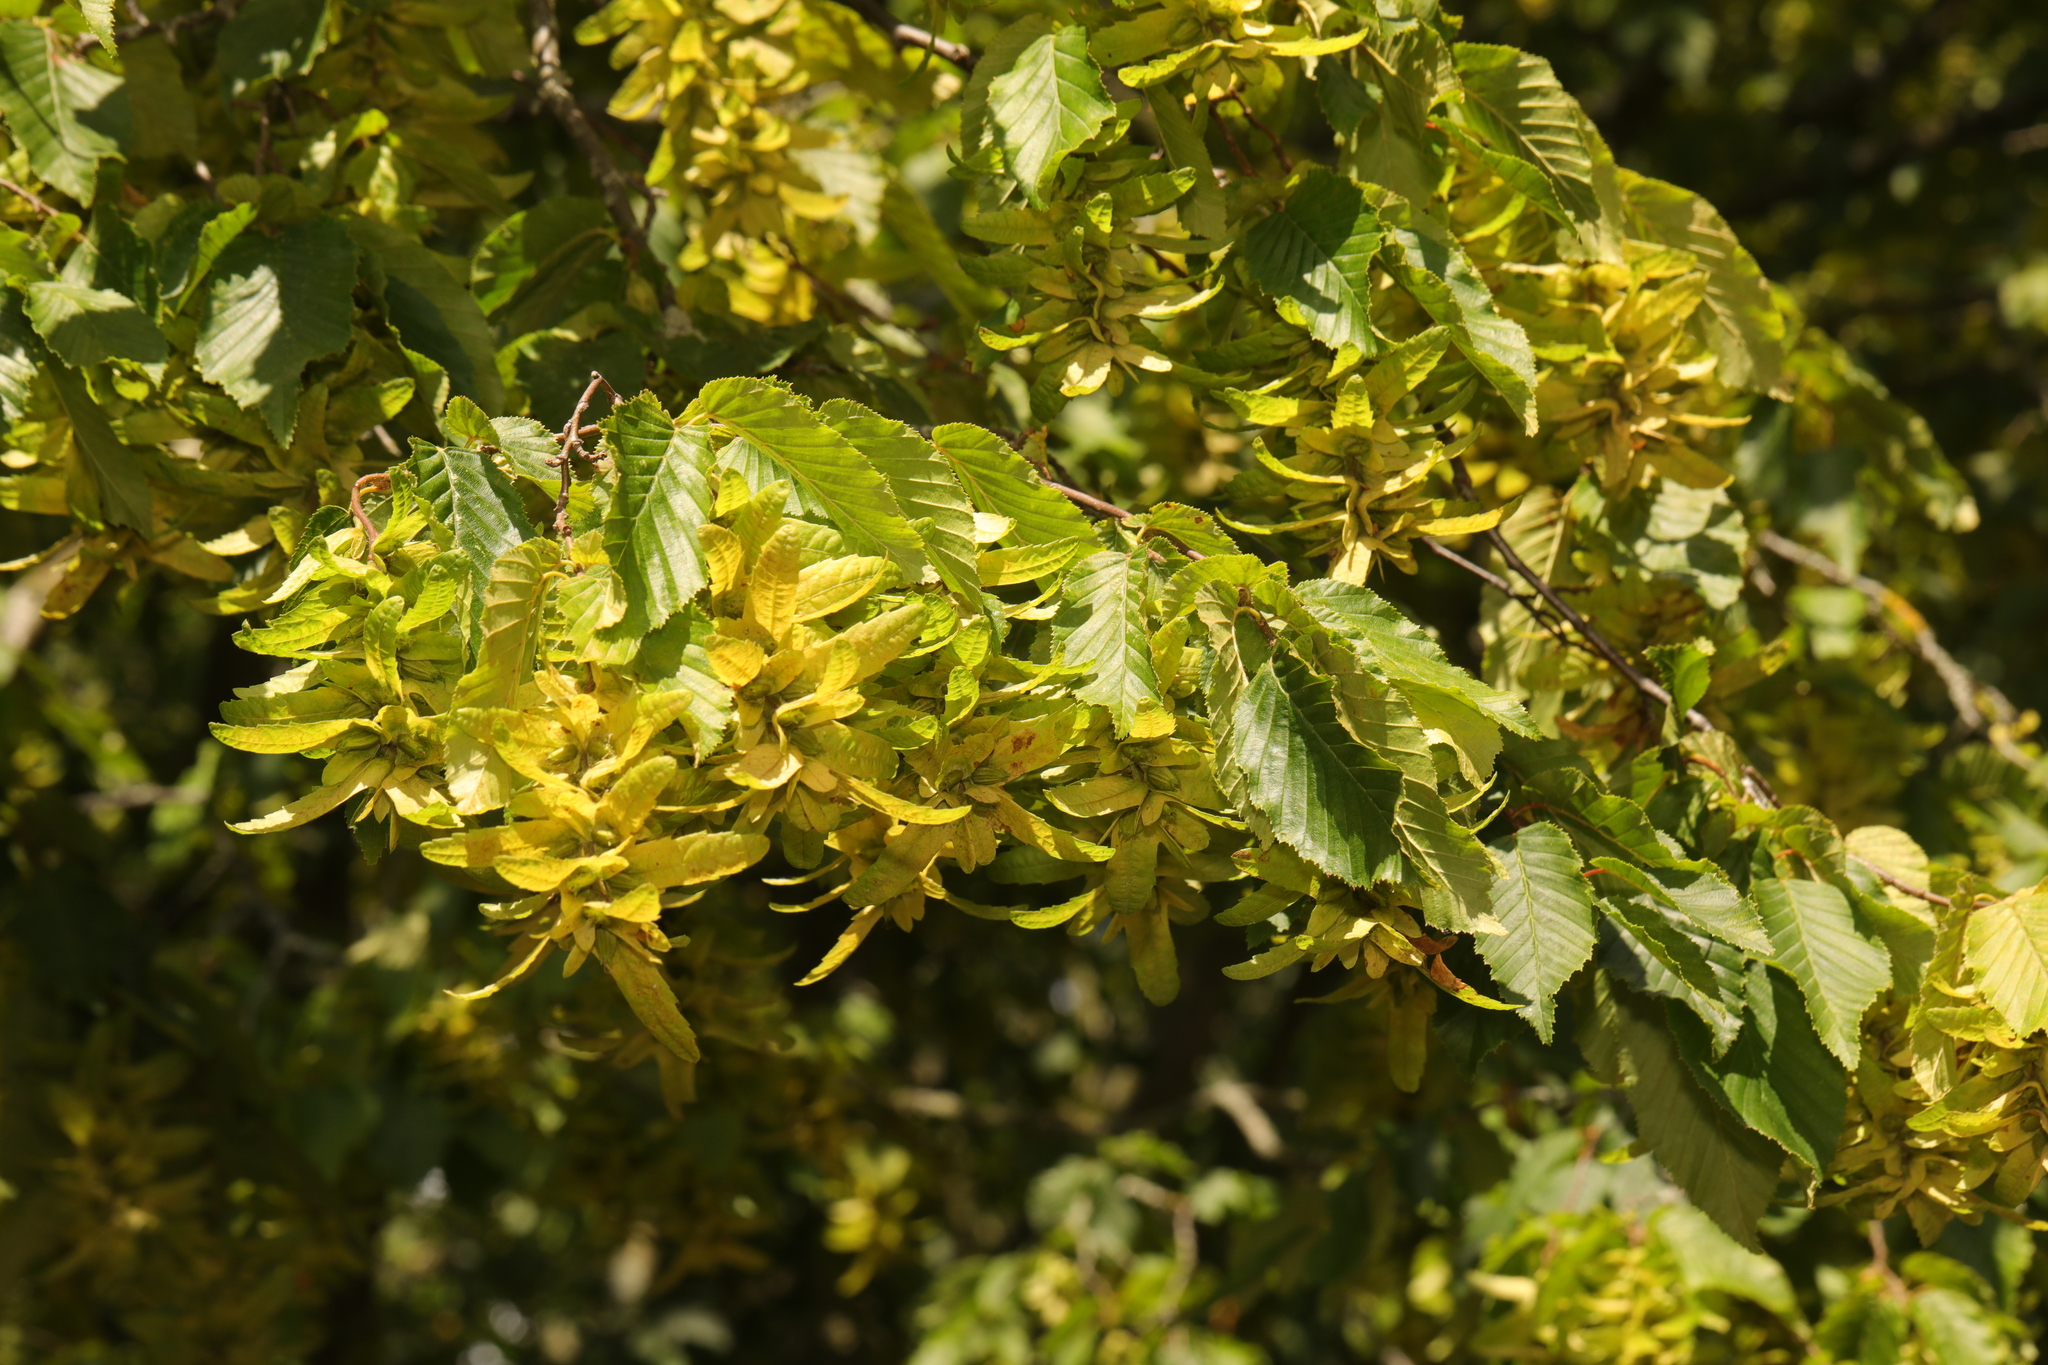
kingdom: Plantae
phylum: Tracheophyta
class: Magnoliopsida
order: Fagales
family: Betulaceae
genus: Carpinus
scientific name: Carpinus betulus
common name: Hornbeam
